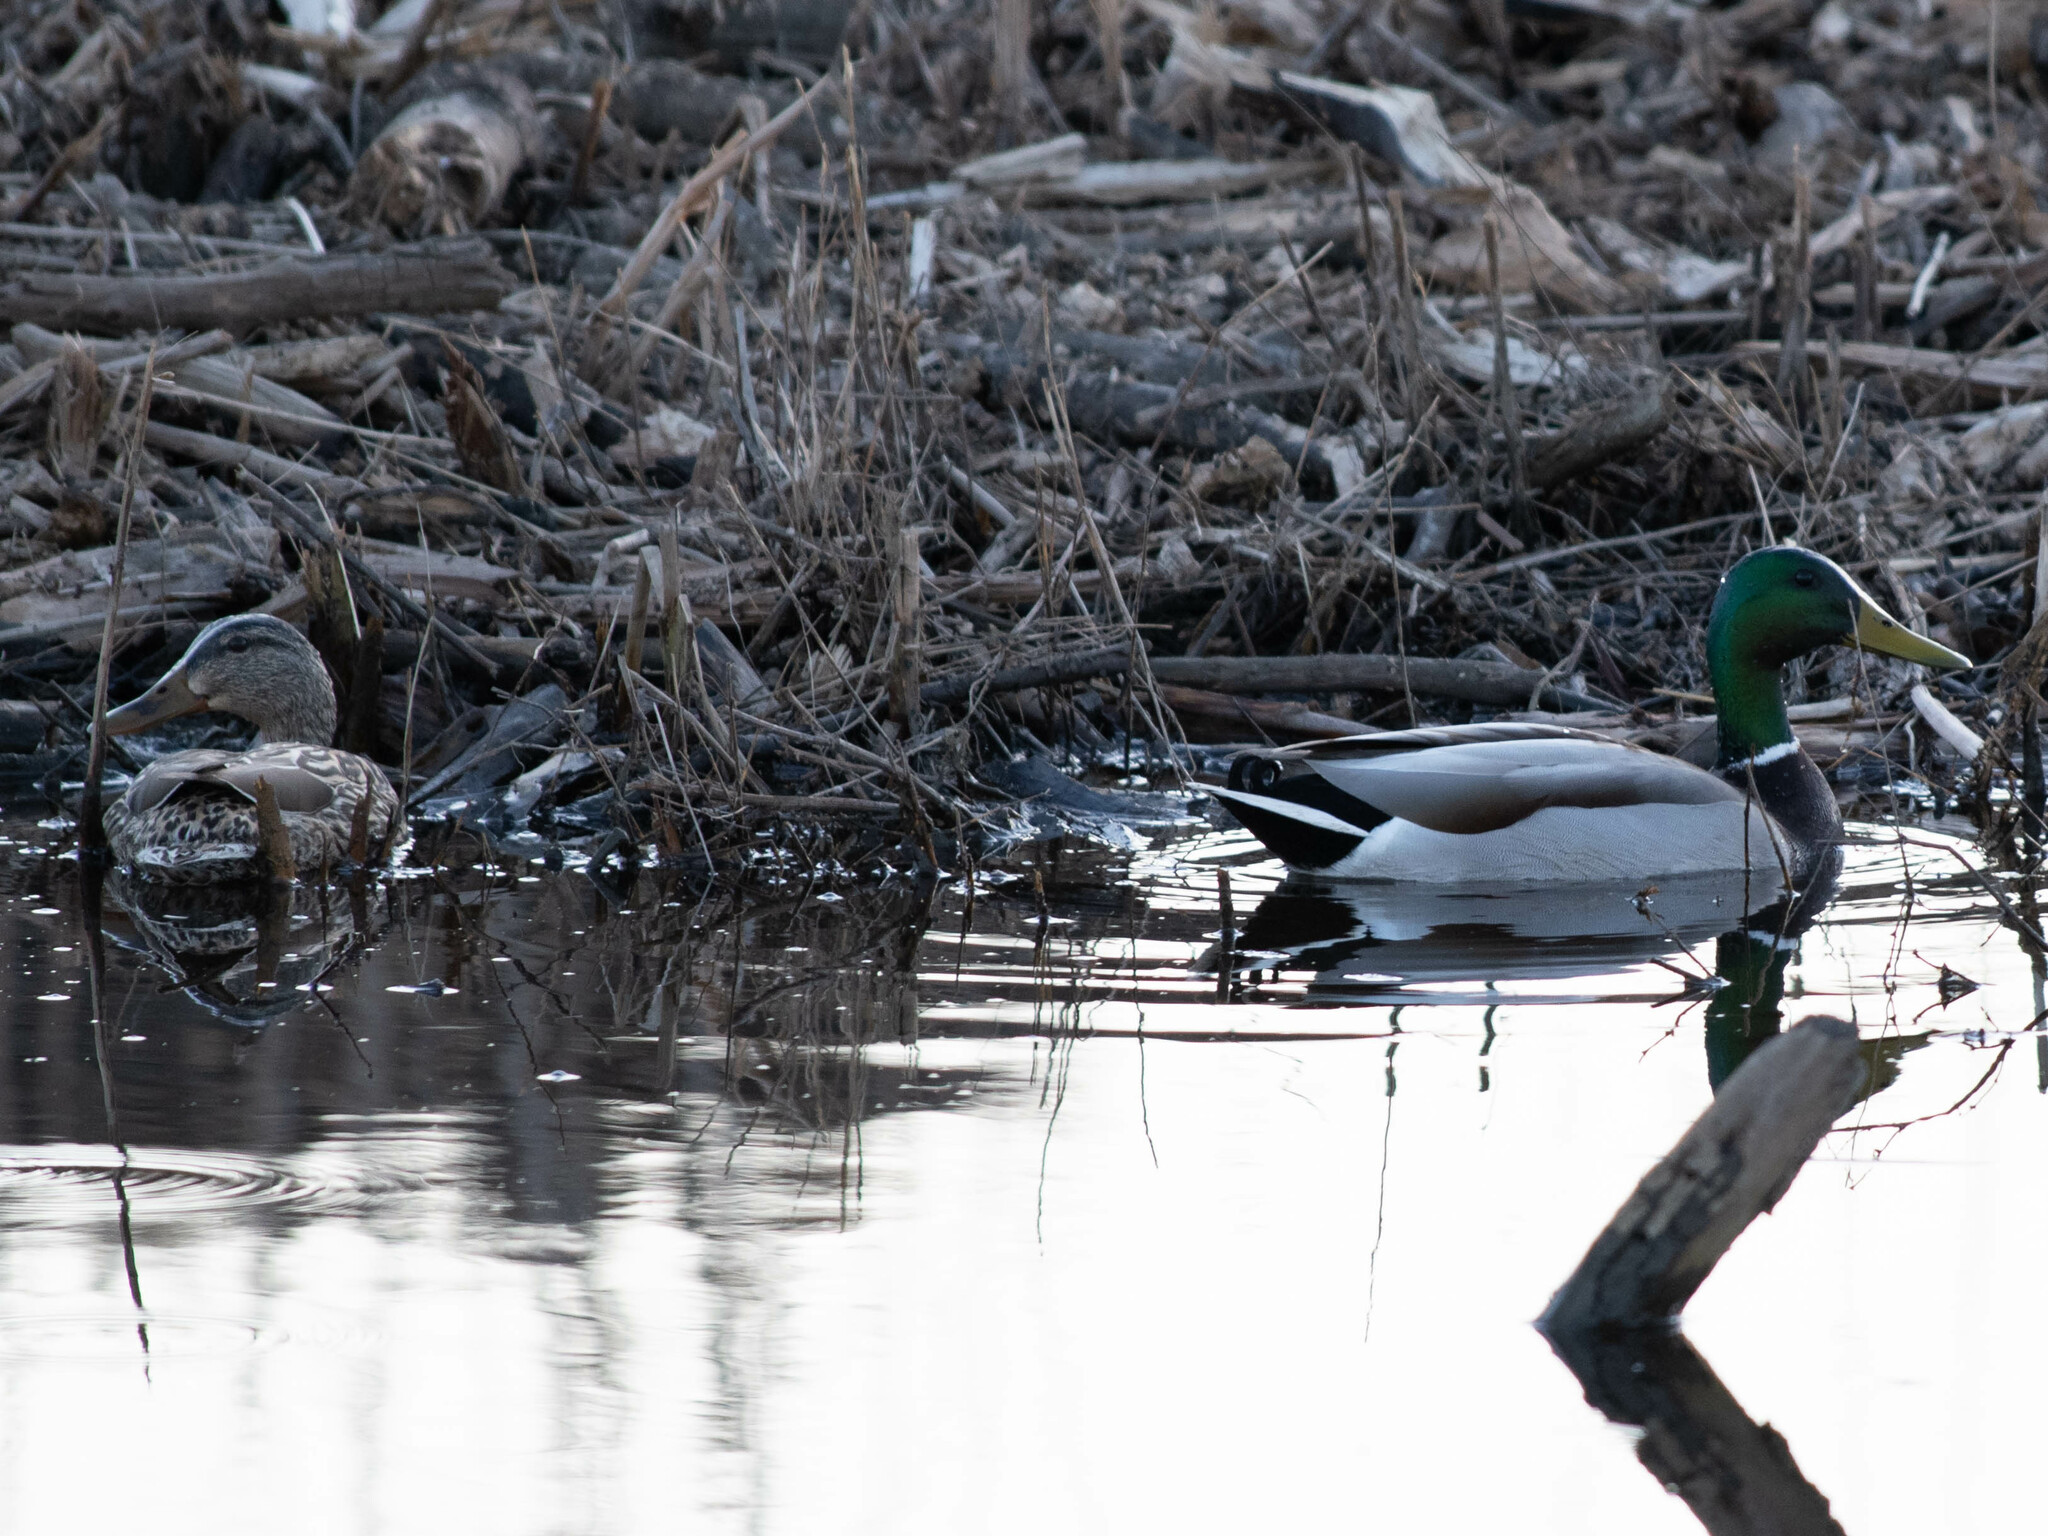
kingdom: Animalia
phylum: Chordata
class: Aves
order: Anseriformes
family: Anatidae
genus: Anas
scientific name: Anas platyrhynchos
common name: Mallard
